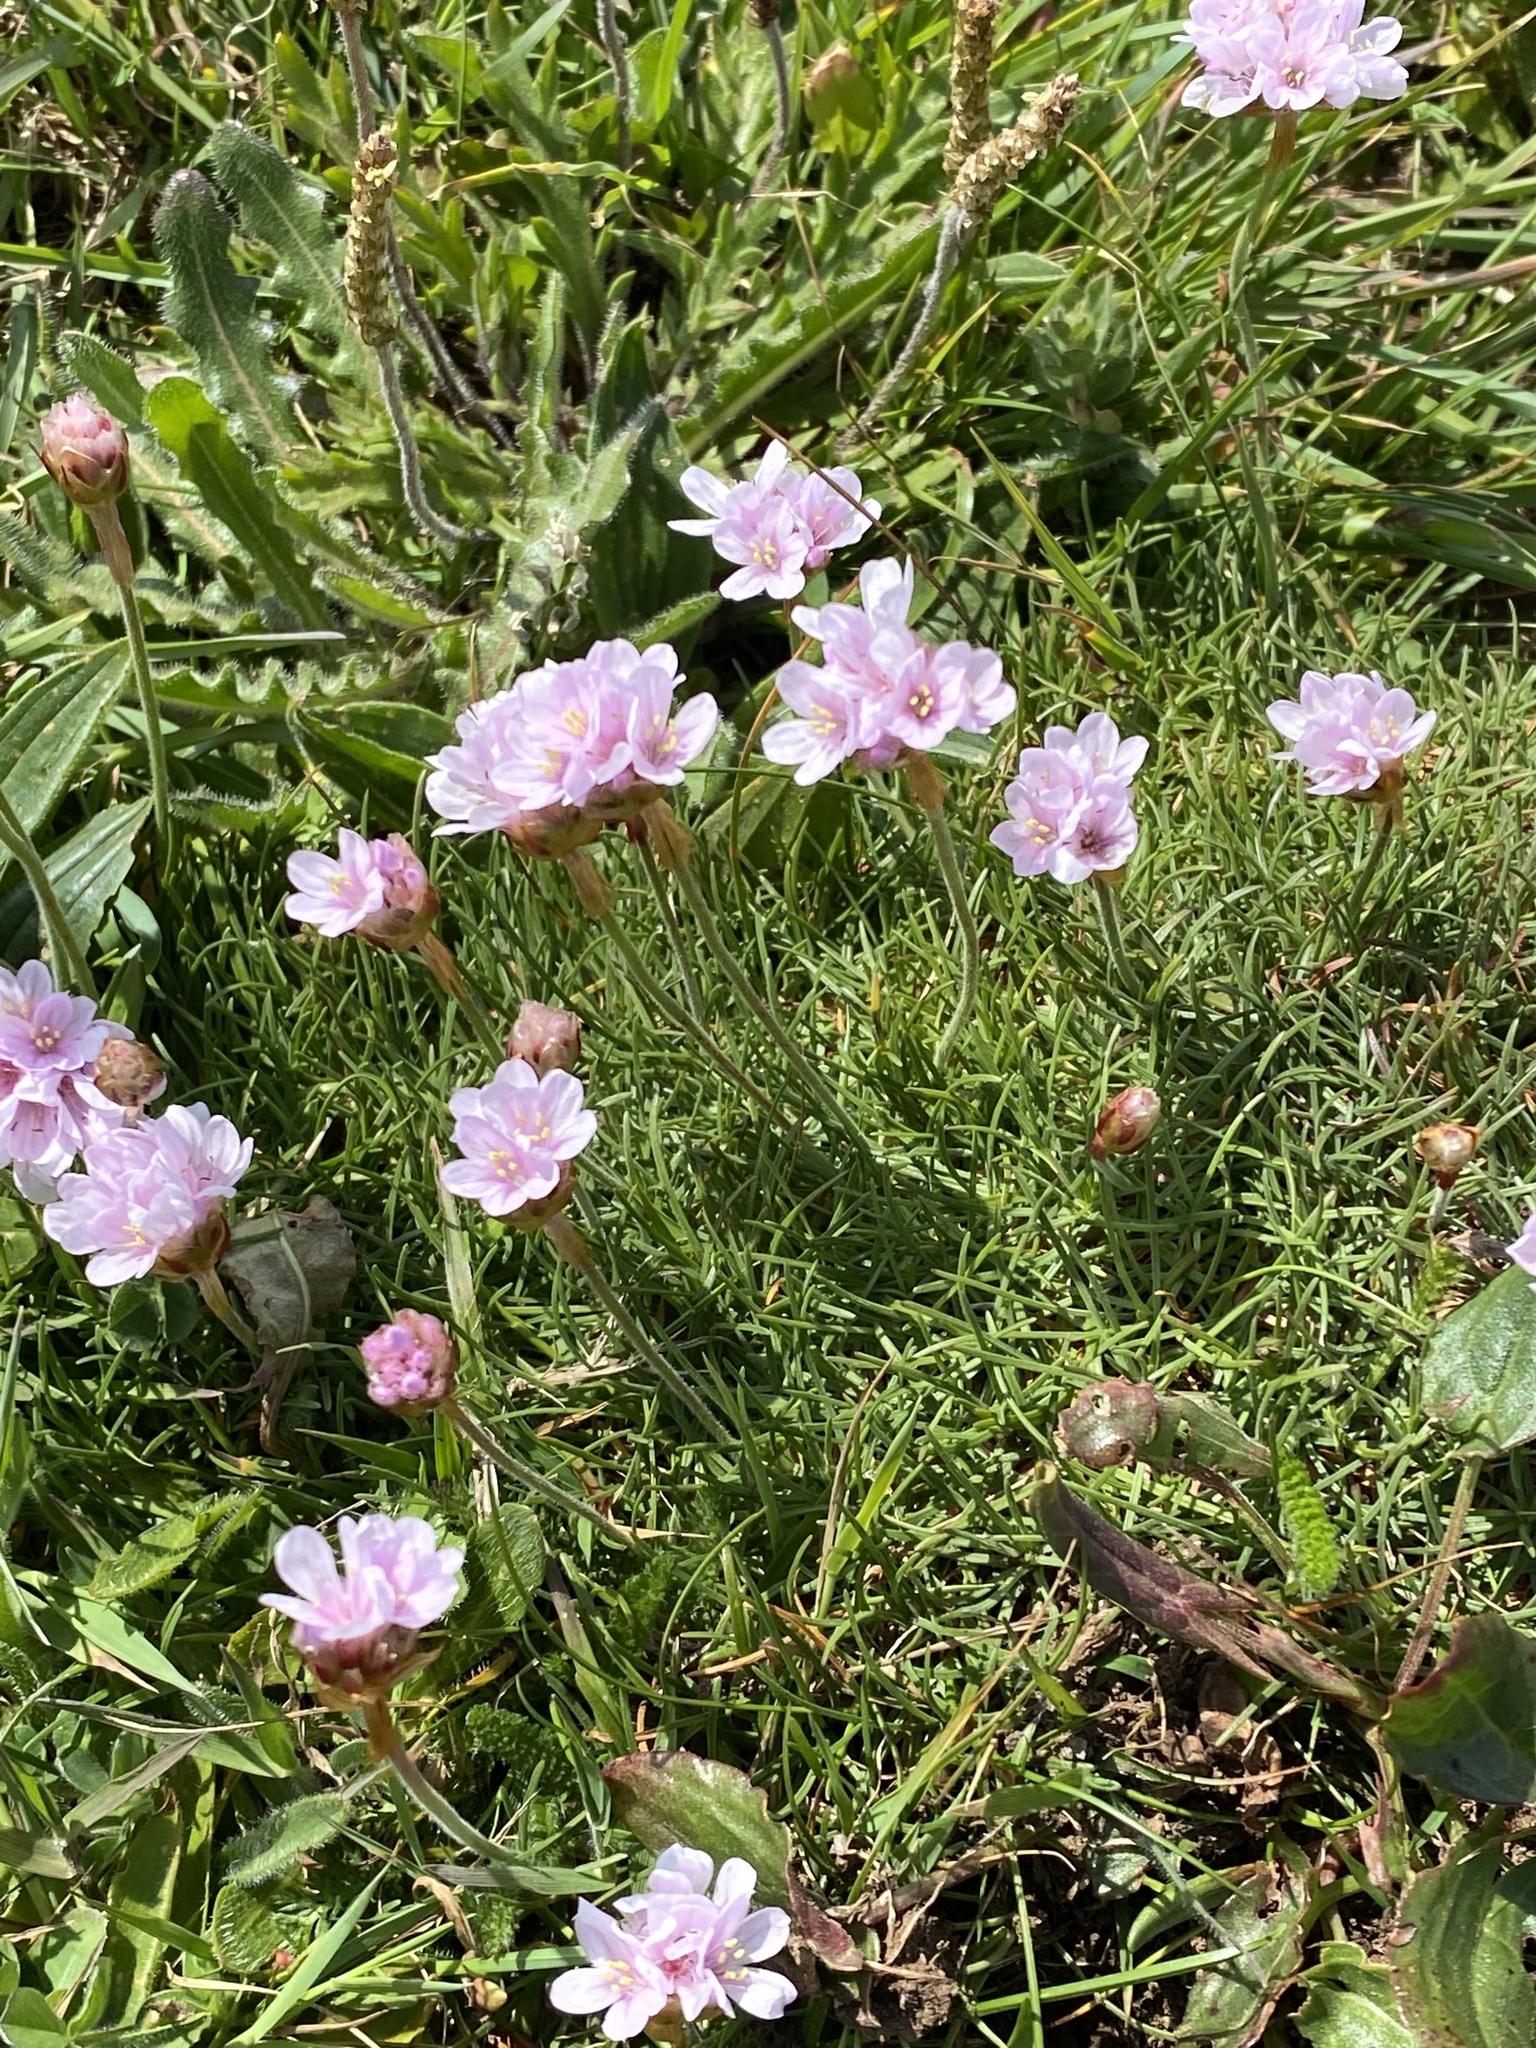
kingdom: Plantae
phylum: Tracheophyta
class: Magnoliopsida
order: Caryophyllales
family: Plumbaginaceae
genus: Armeria
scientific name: Armeria maritima
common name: Thrift
